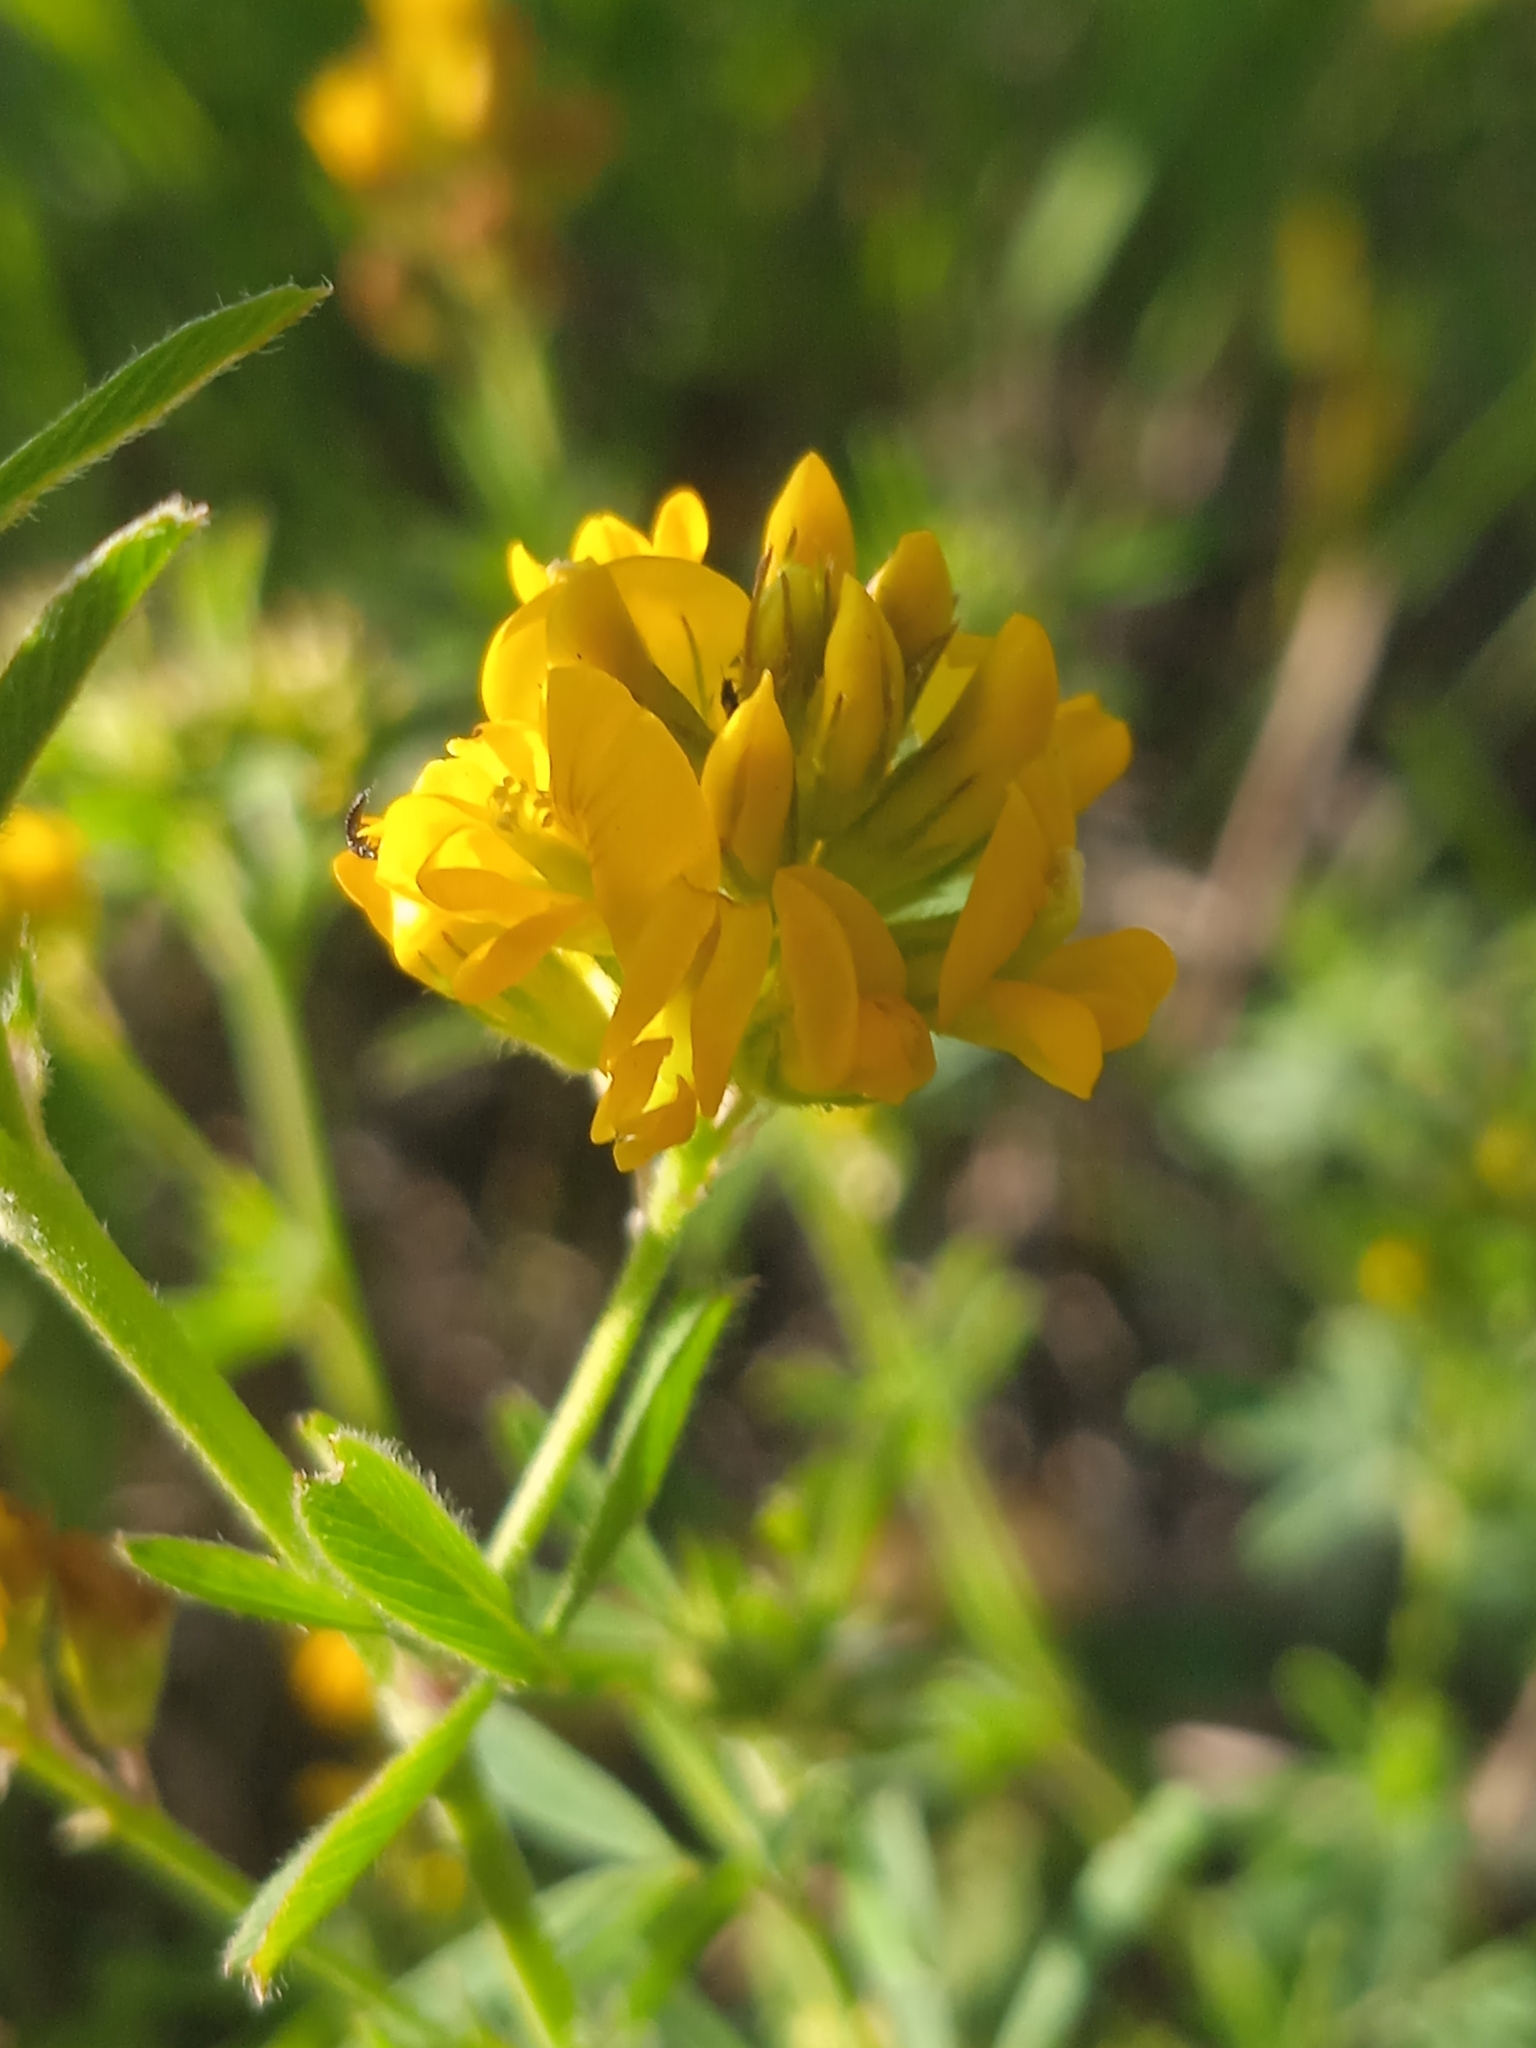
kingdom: Plantae
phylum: Tracheophyta
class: Magnoliopsida
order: Fabales
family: Fabaceae
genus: Medicago
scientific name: Medicago falcata
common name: Sickle medick
